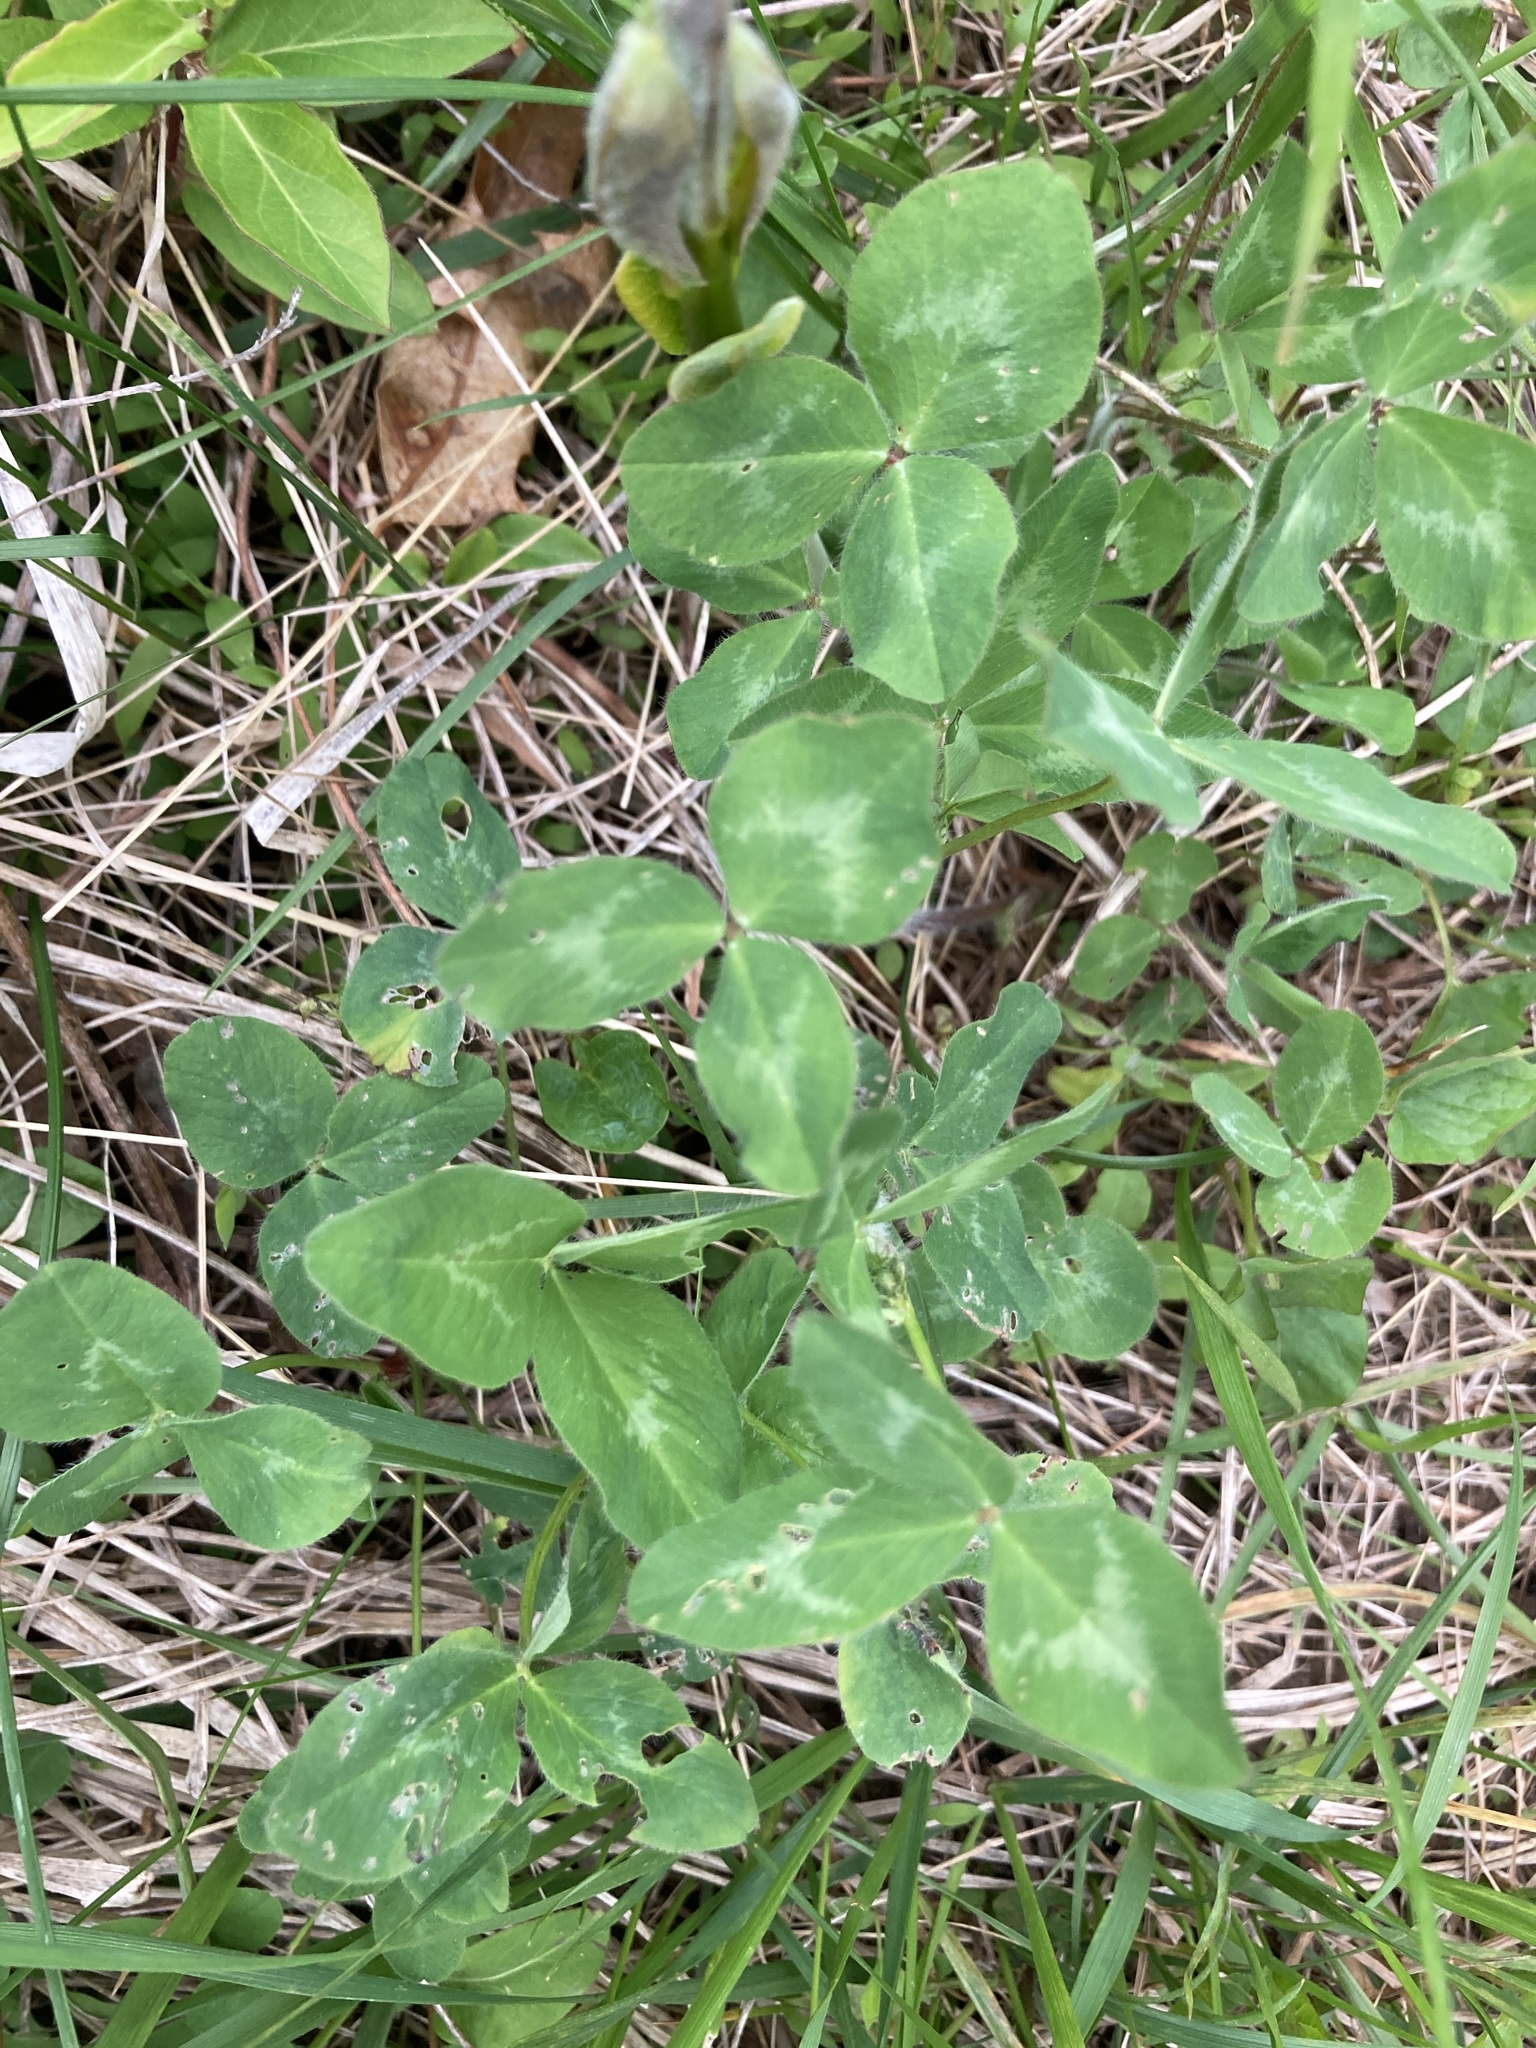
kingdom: Plantae
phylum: Tracheophyta
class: Magnoliopsida
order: Fabales
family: Fabaceae
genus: Trifolium
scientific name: Trifolium pratense
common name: Red clover
